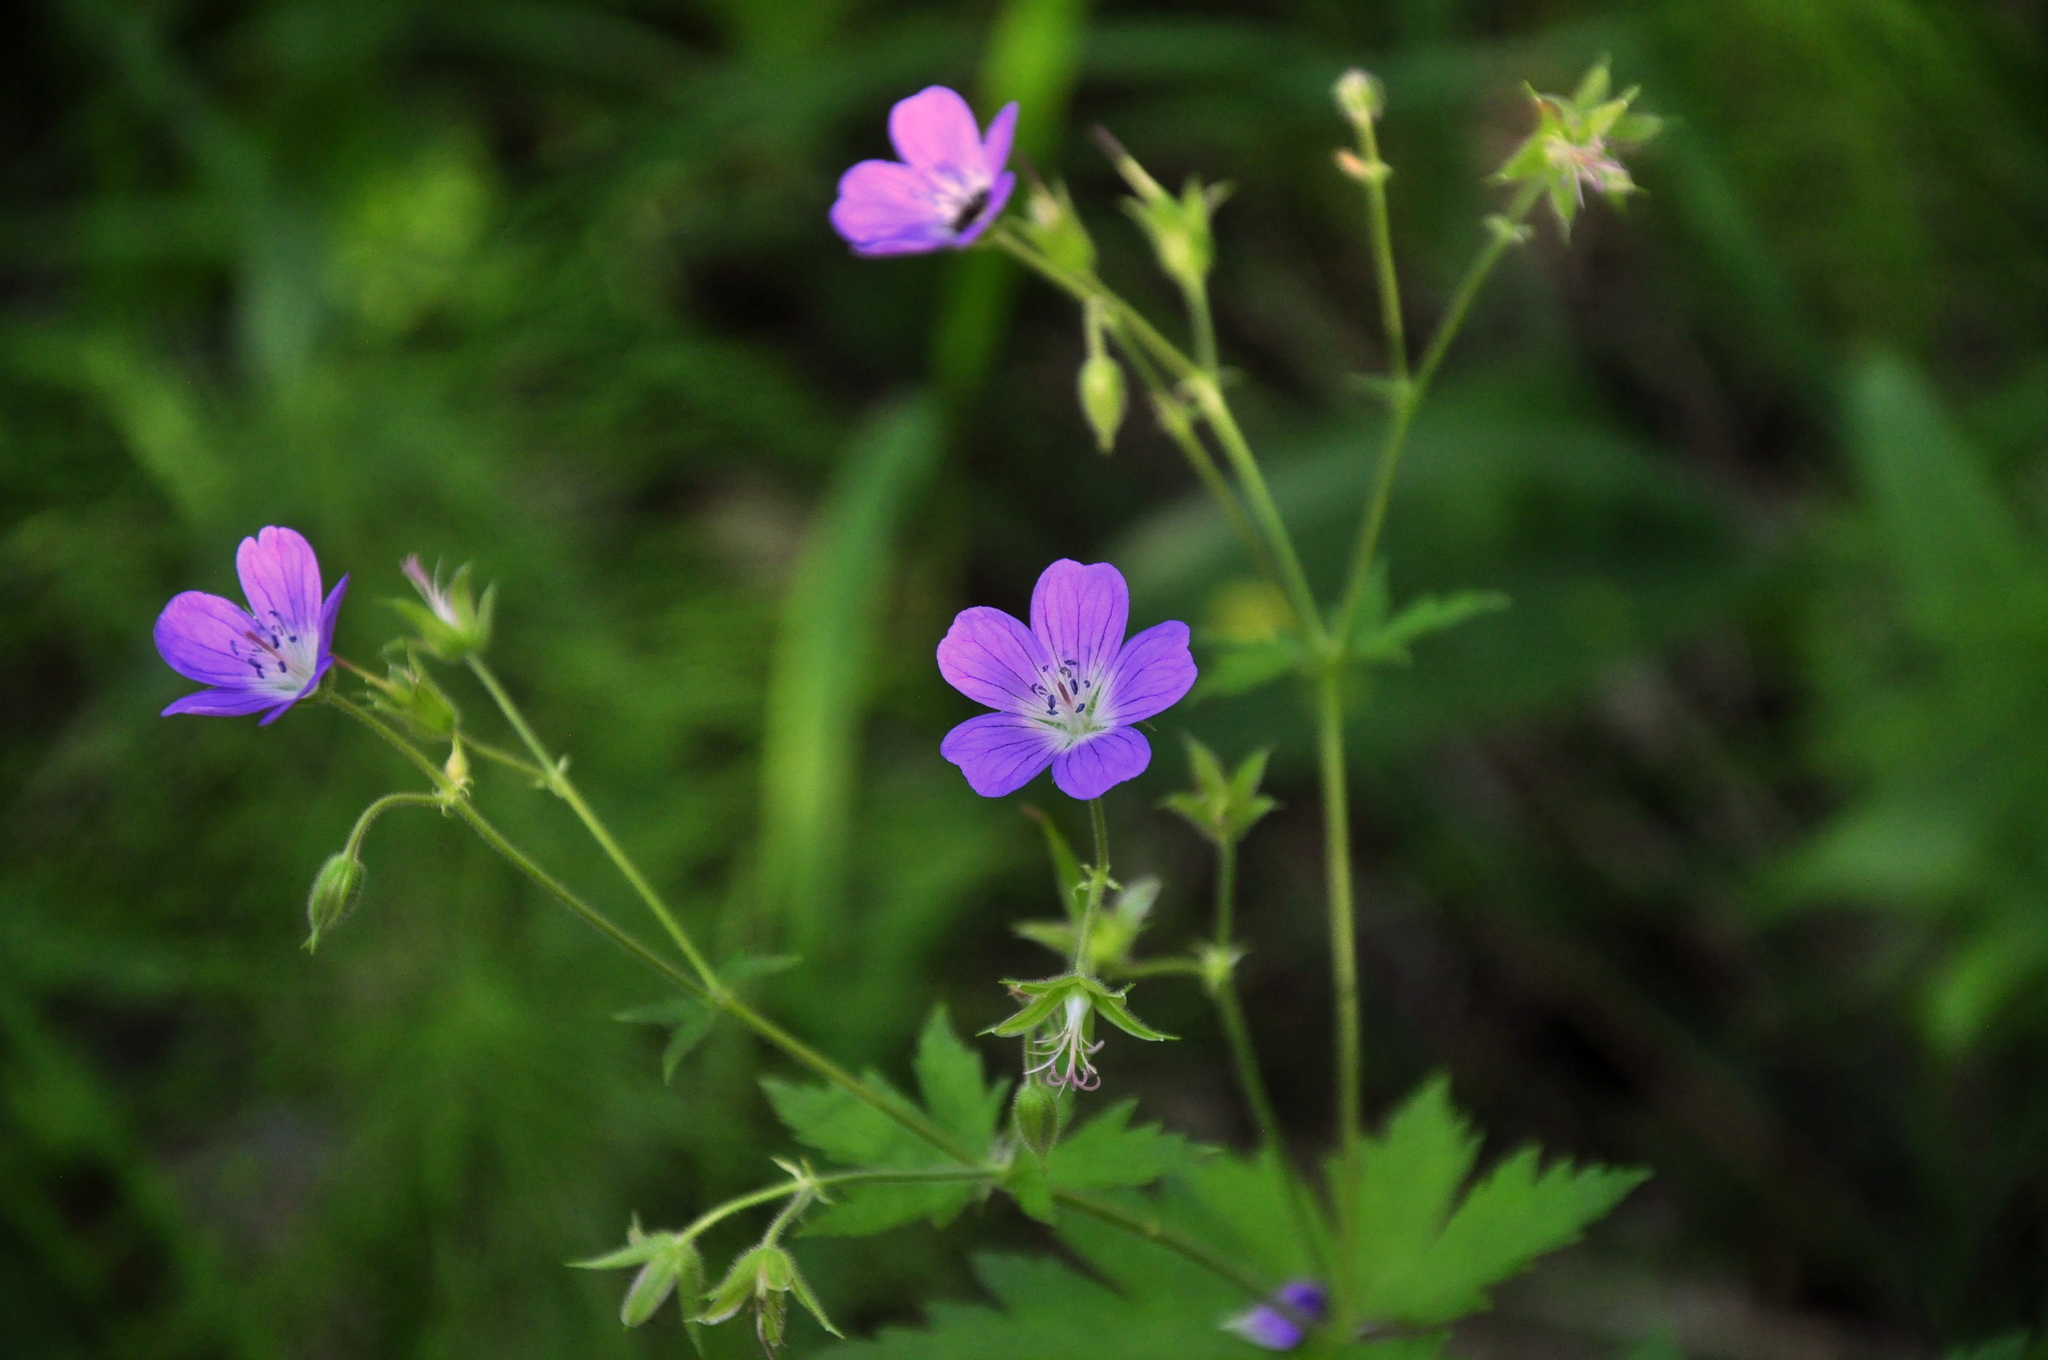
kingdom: Plantae
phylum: Tracheophyta
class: Magnoliopsida
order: Geraniales
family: Geraniaceae
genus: Geranium
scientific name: Geranium sylvaticum
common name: Wood crane's-bill
